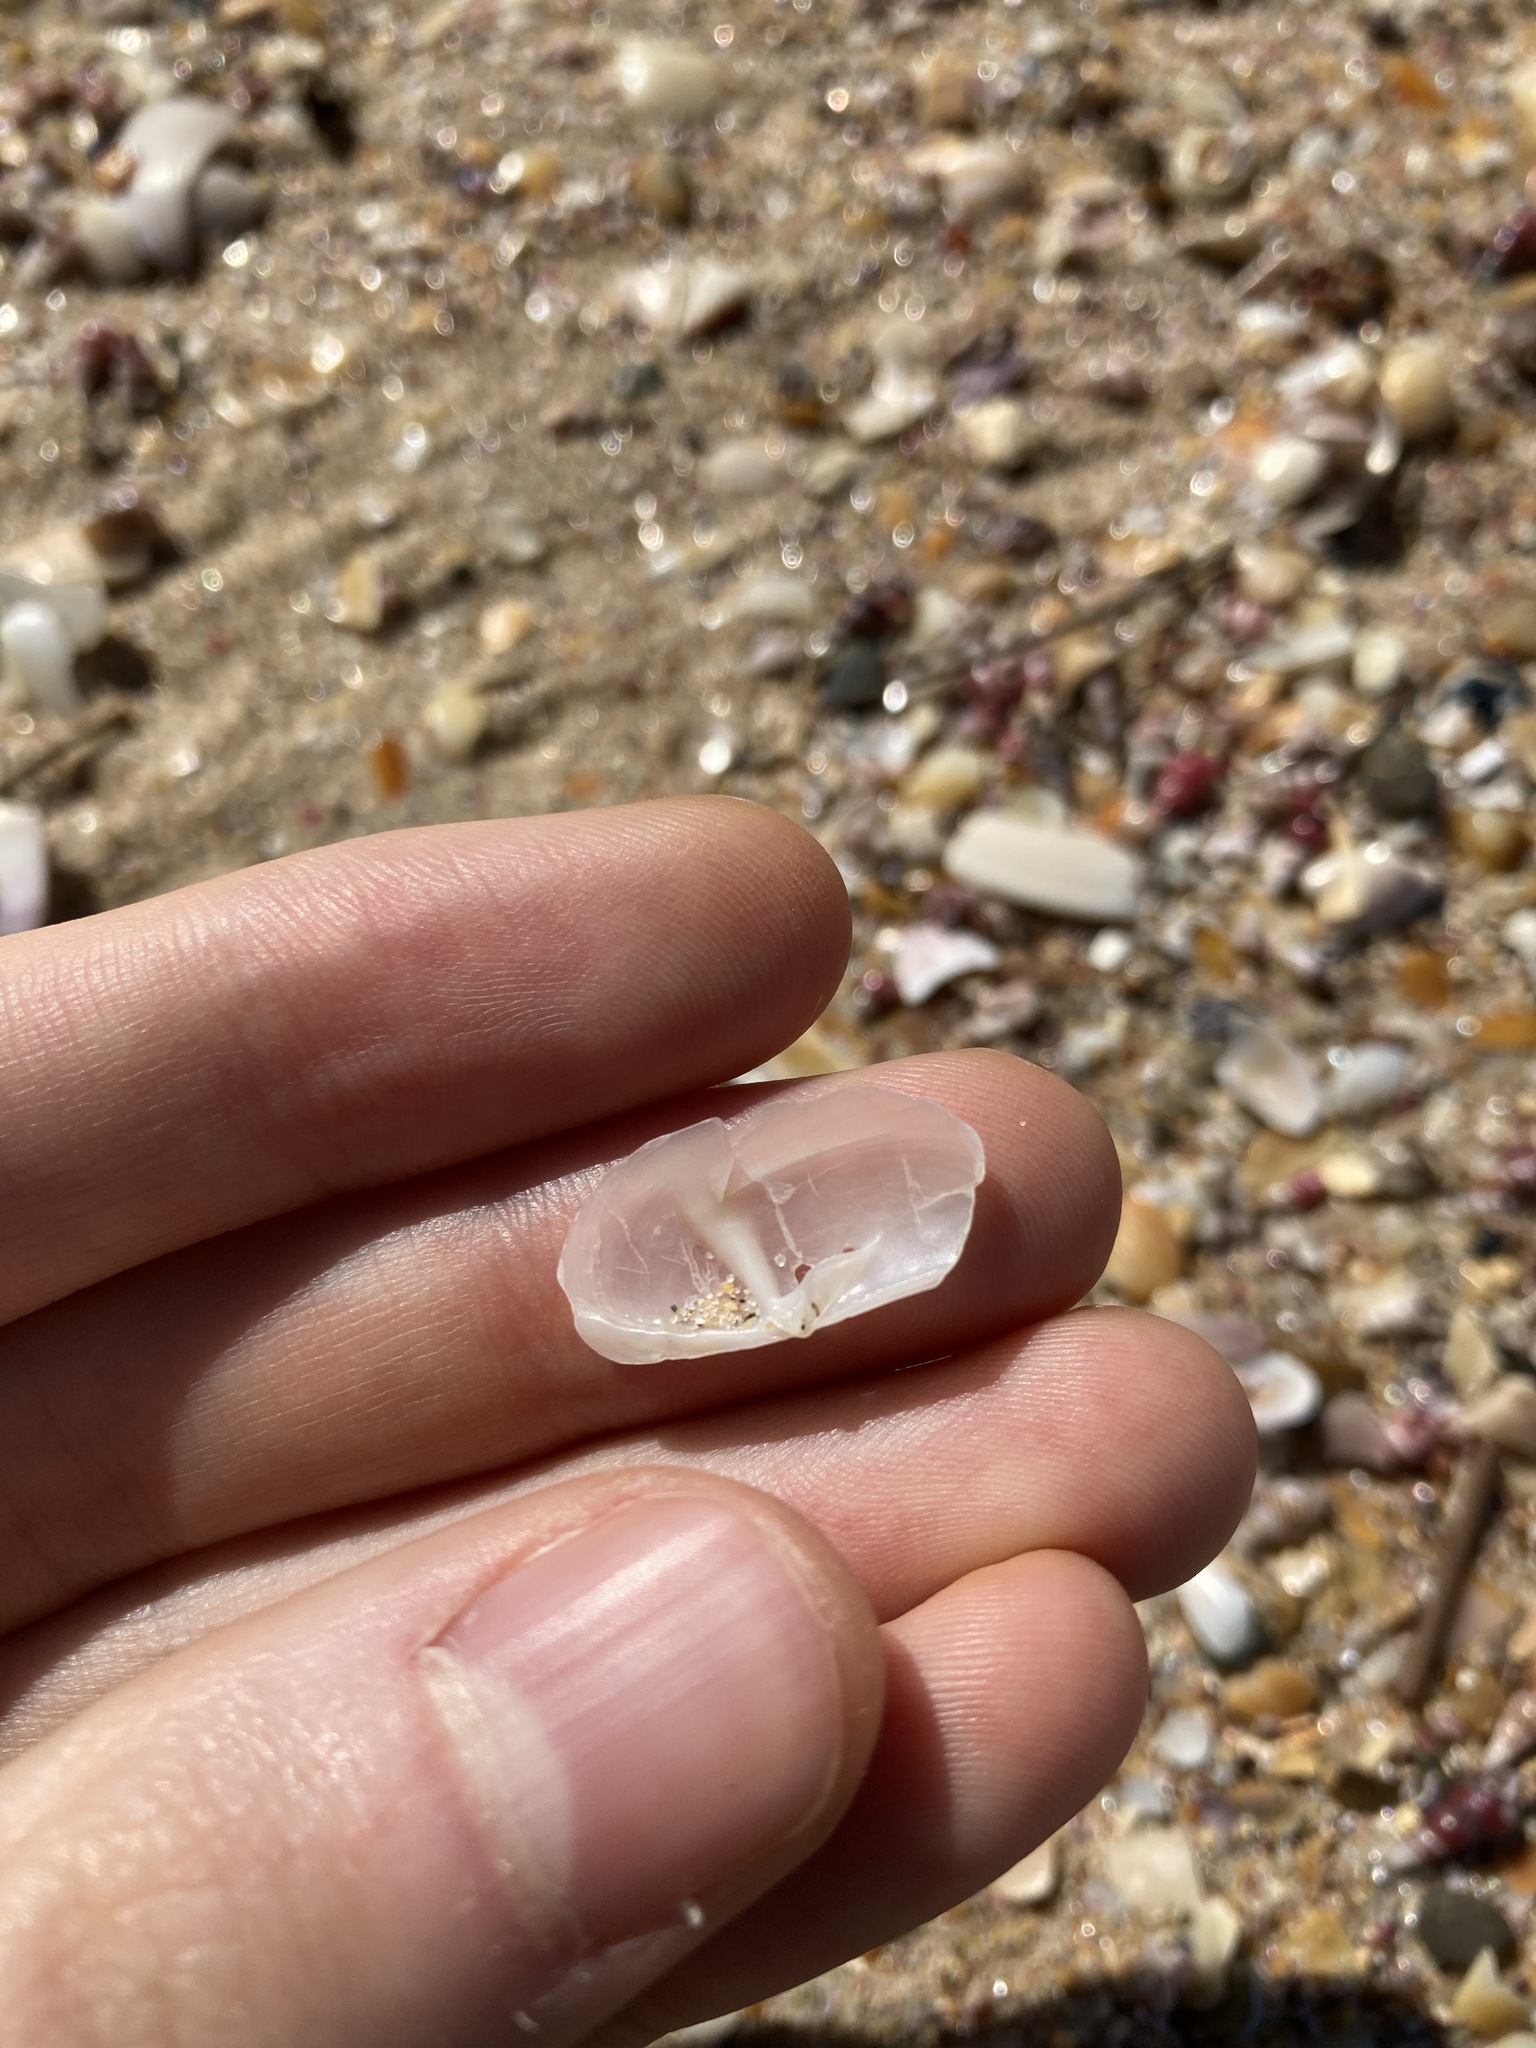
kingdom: Animalia
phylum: Mollusca
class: Bivalvia
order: Venerida
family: Mactridae
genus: Zenatina
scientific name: Zenatina victoriae
